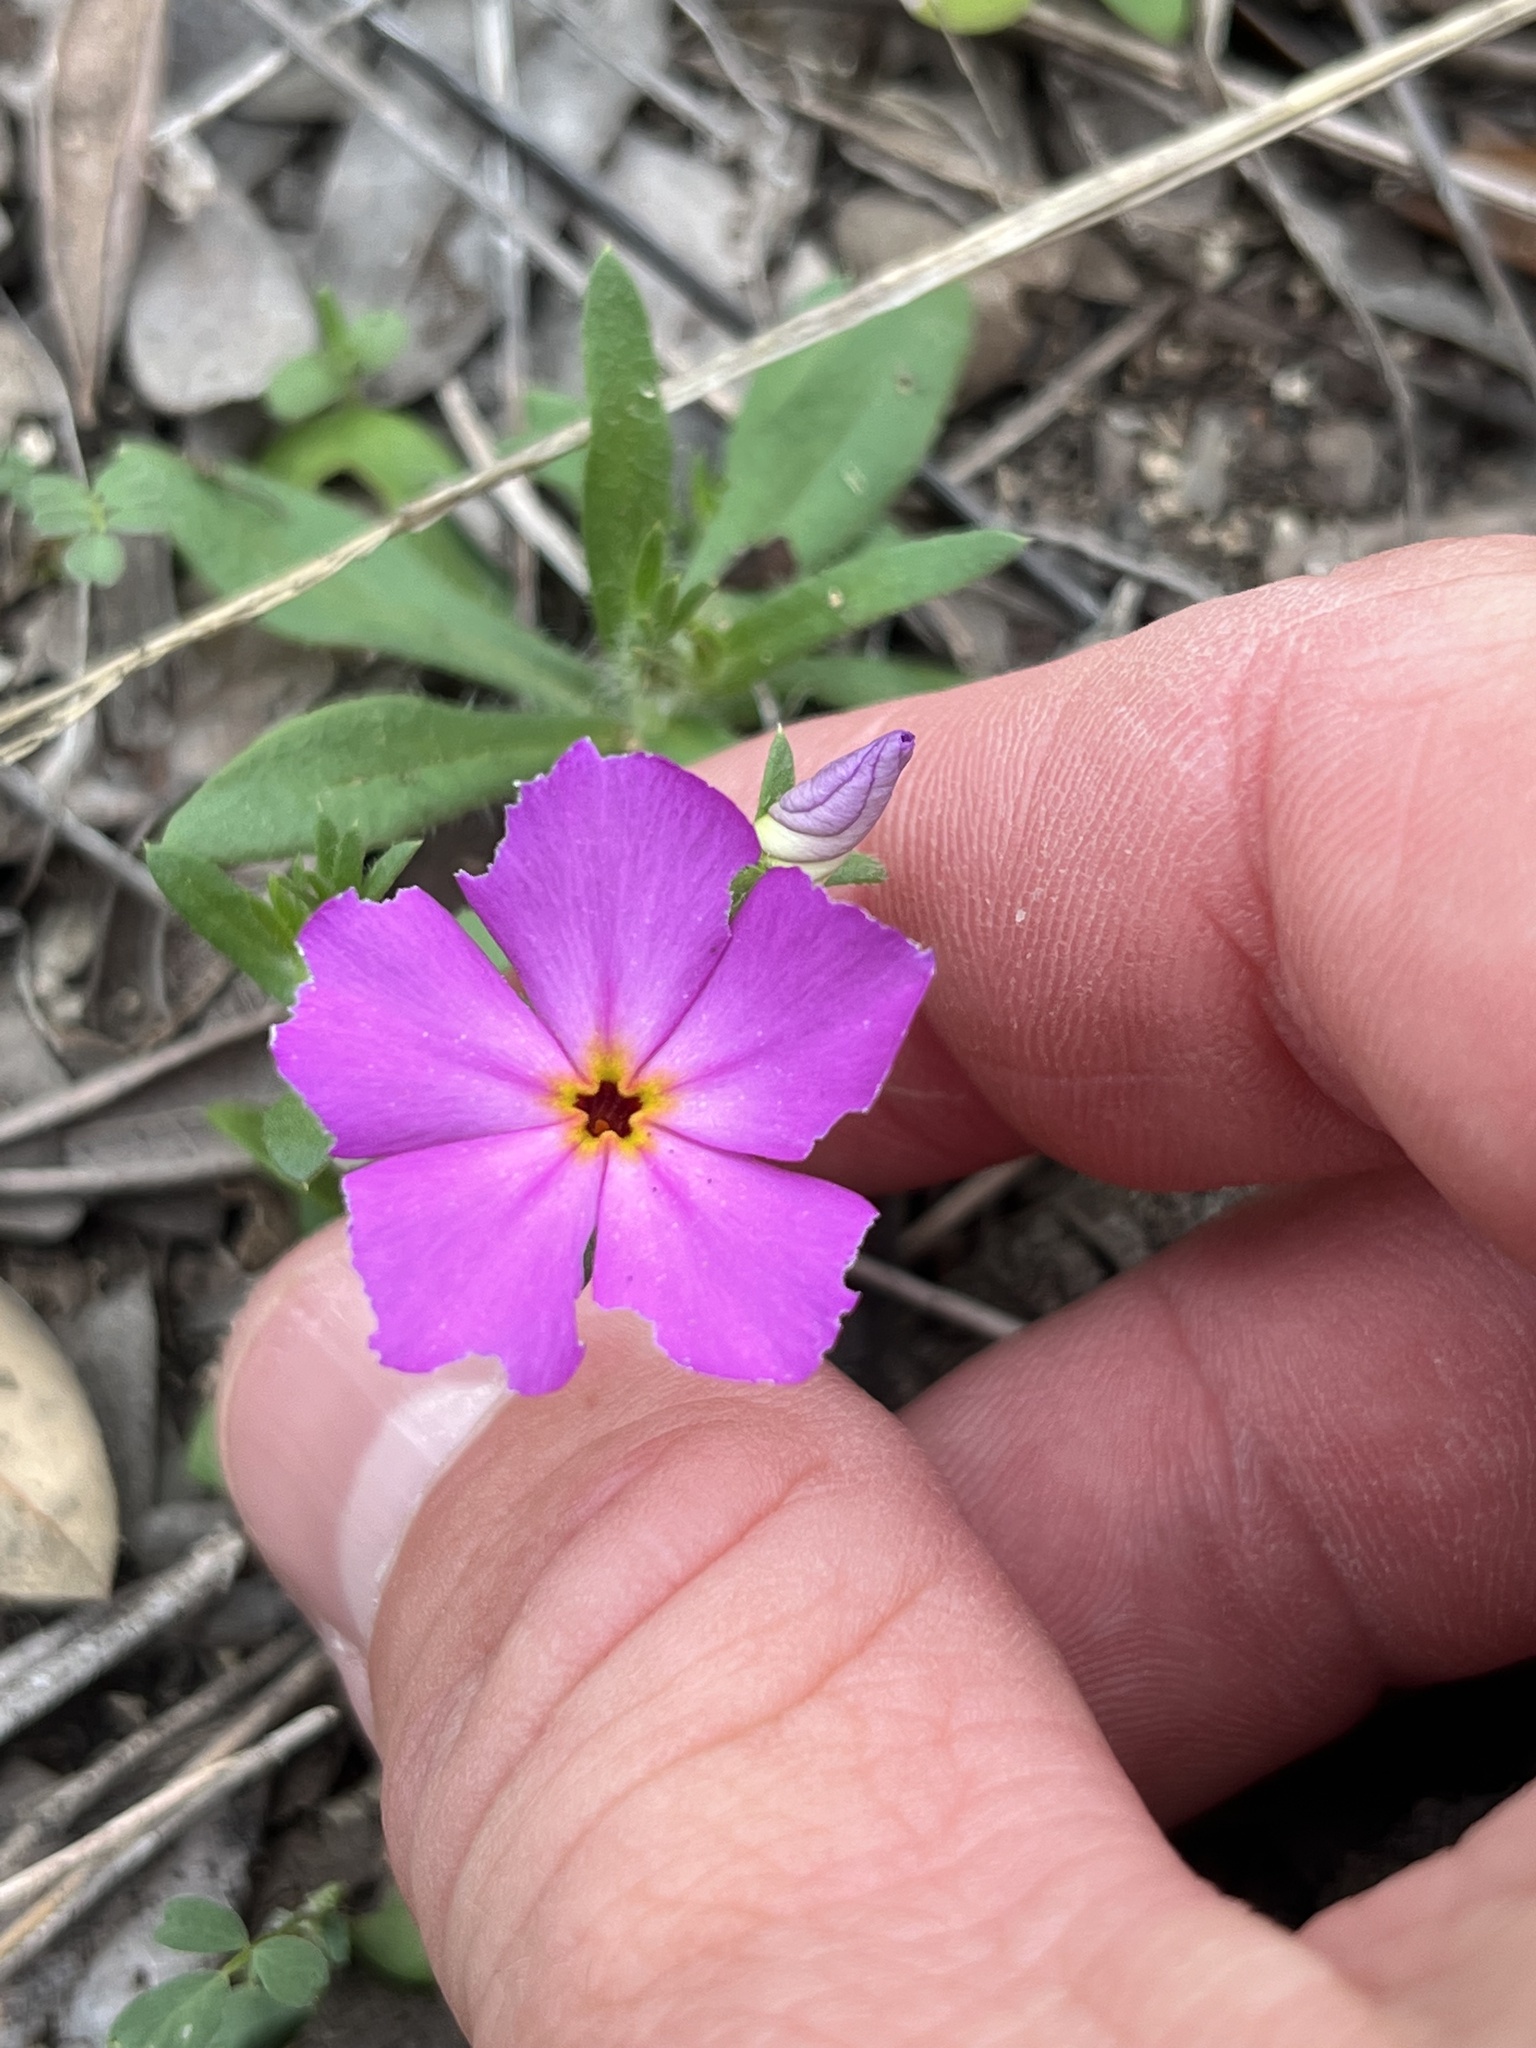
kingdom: Plantae
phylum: Tracheophyta
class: Magnoliopsida
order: Ericales
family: Polemoniaceae
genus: Phlox
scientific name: Phlox roemeriana
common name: Roemer's phlox
